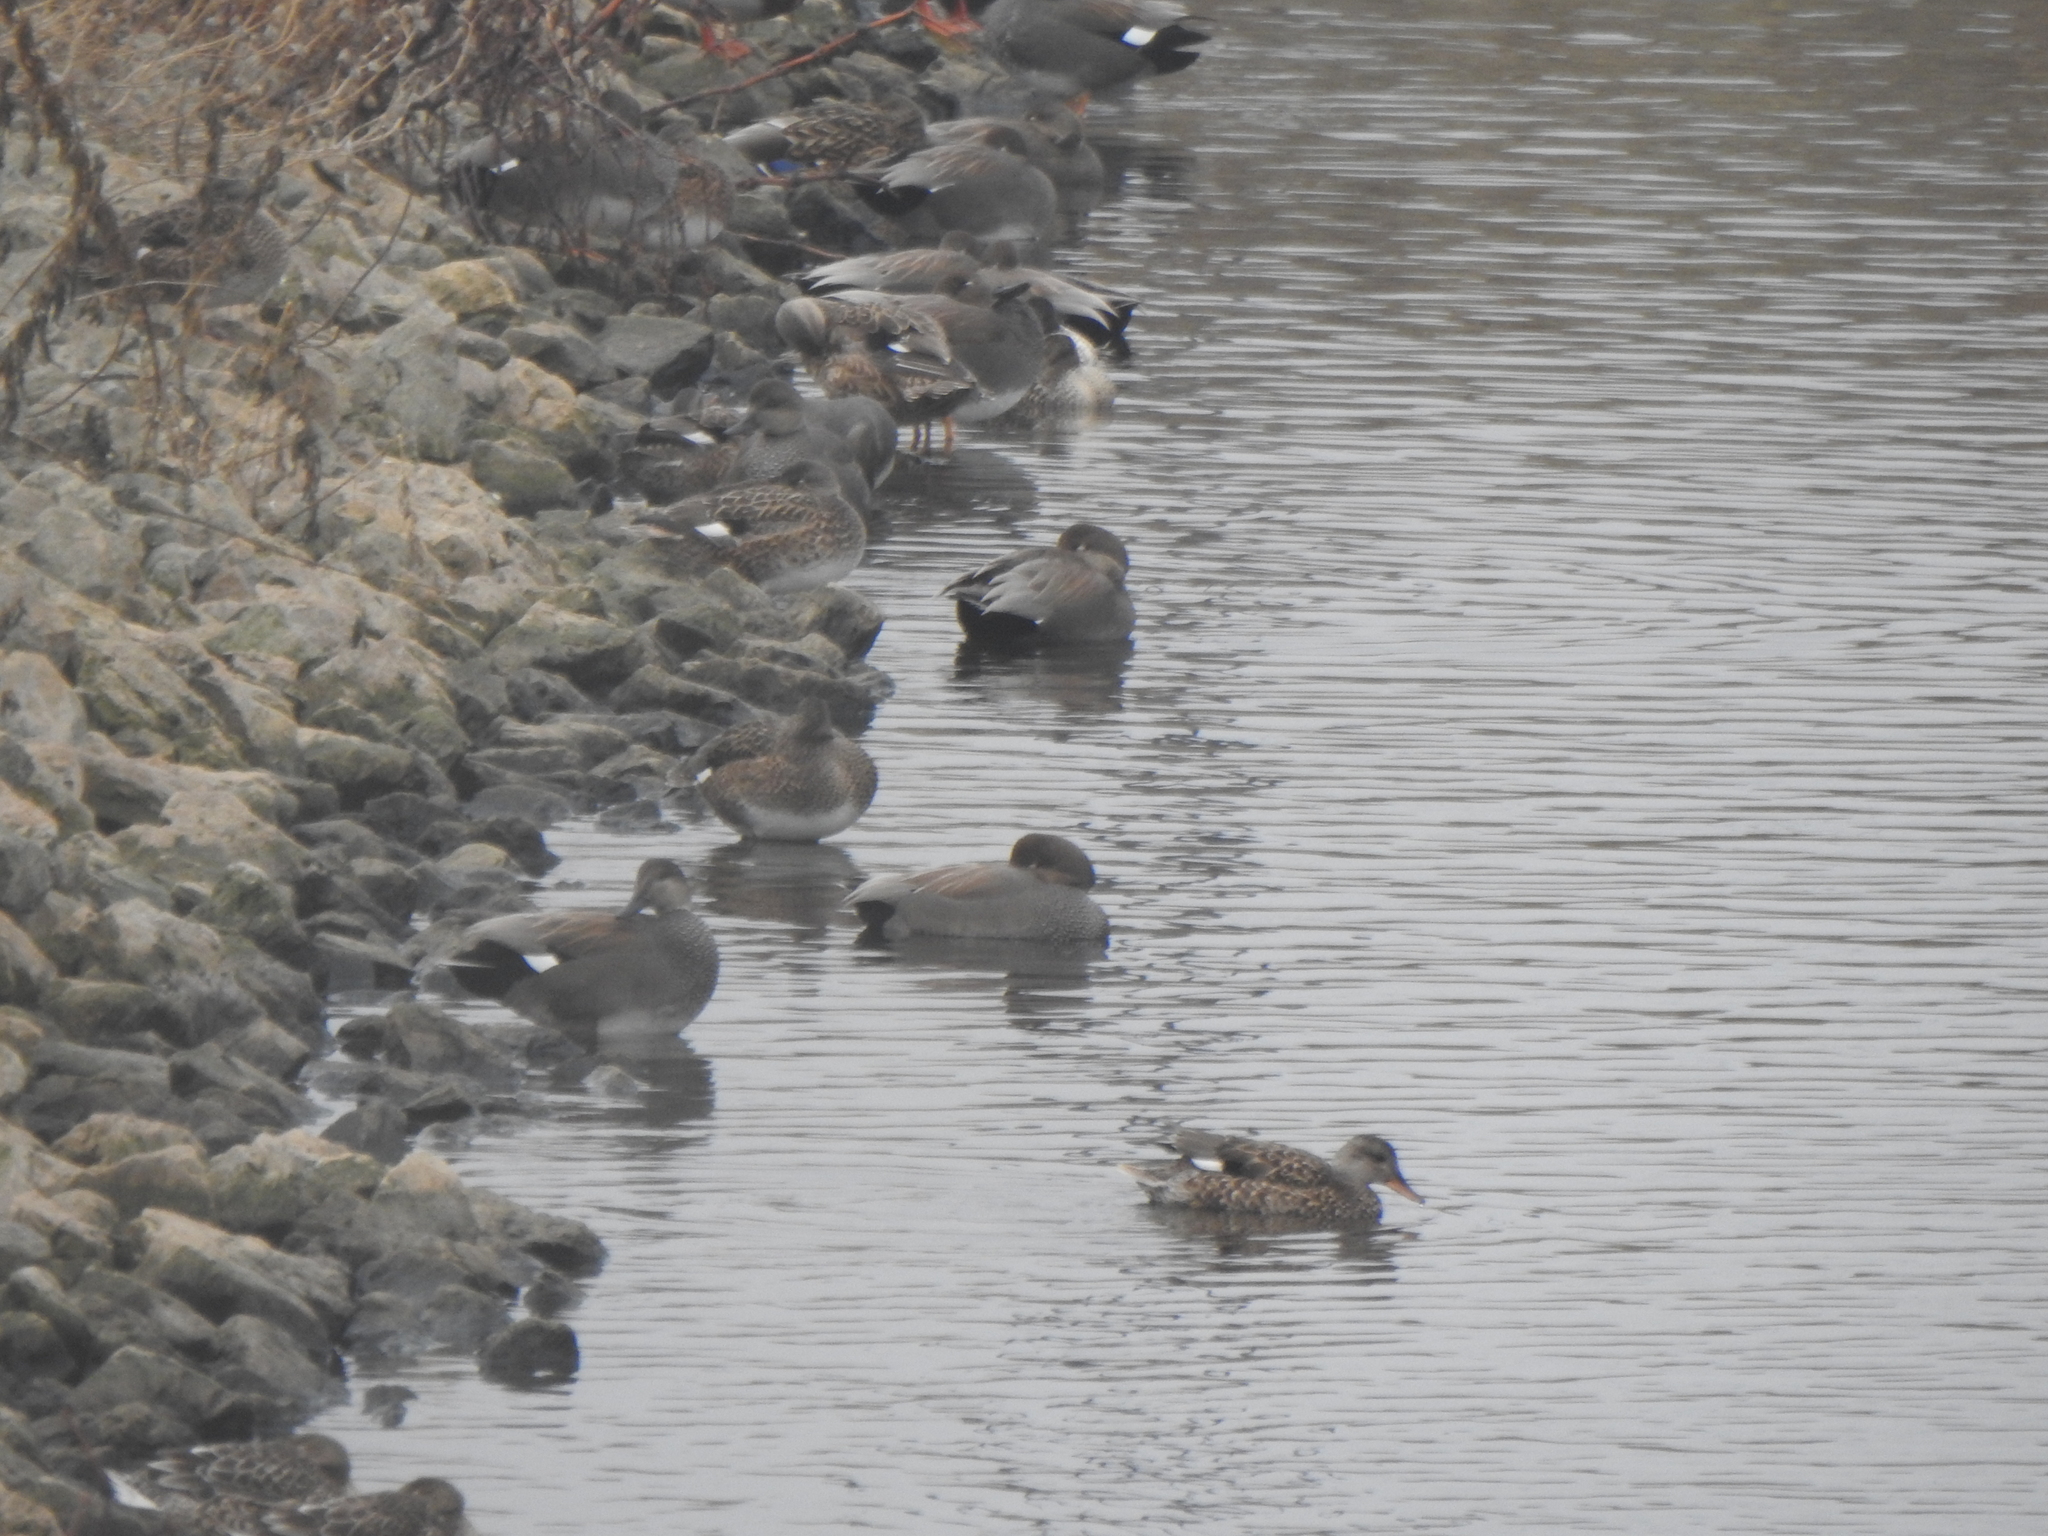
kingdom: Animalia
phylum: Chordata
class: Aves
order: Anseriformes
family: Anatidae
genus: Mareca
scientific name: Mareca strepera
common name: Gadwall
